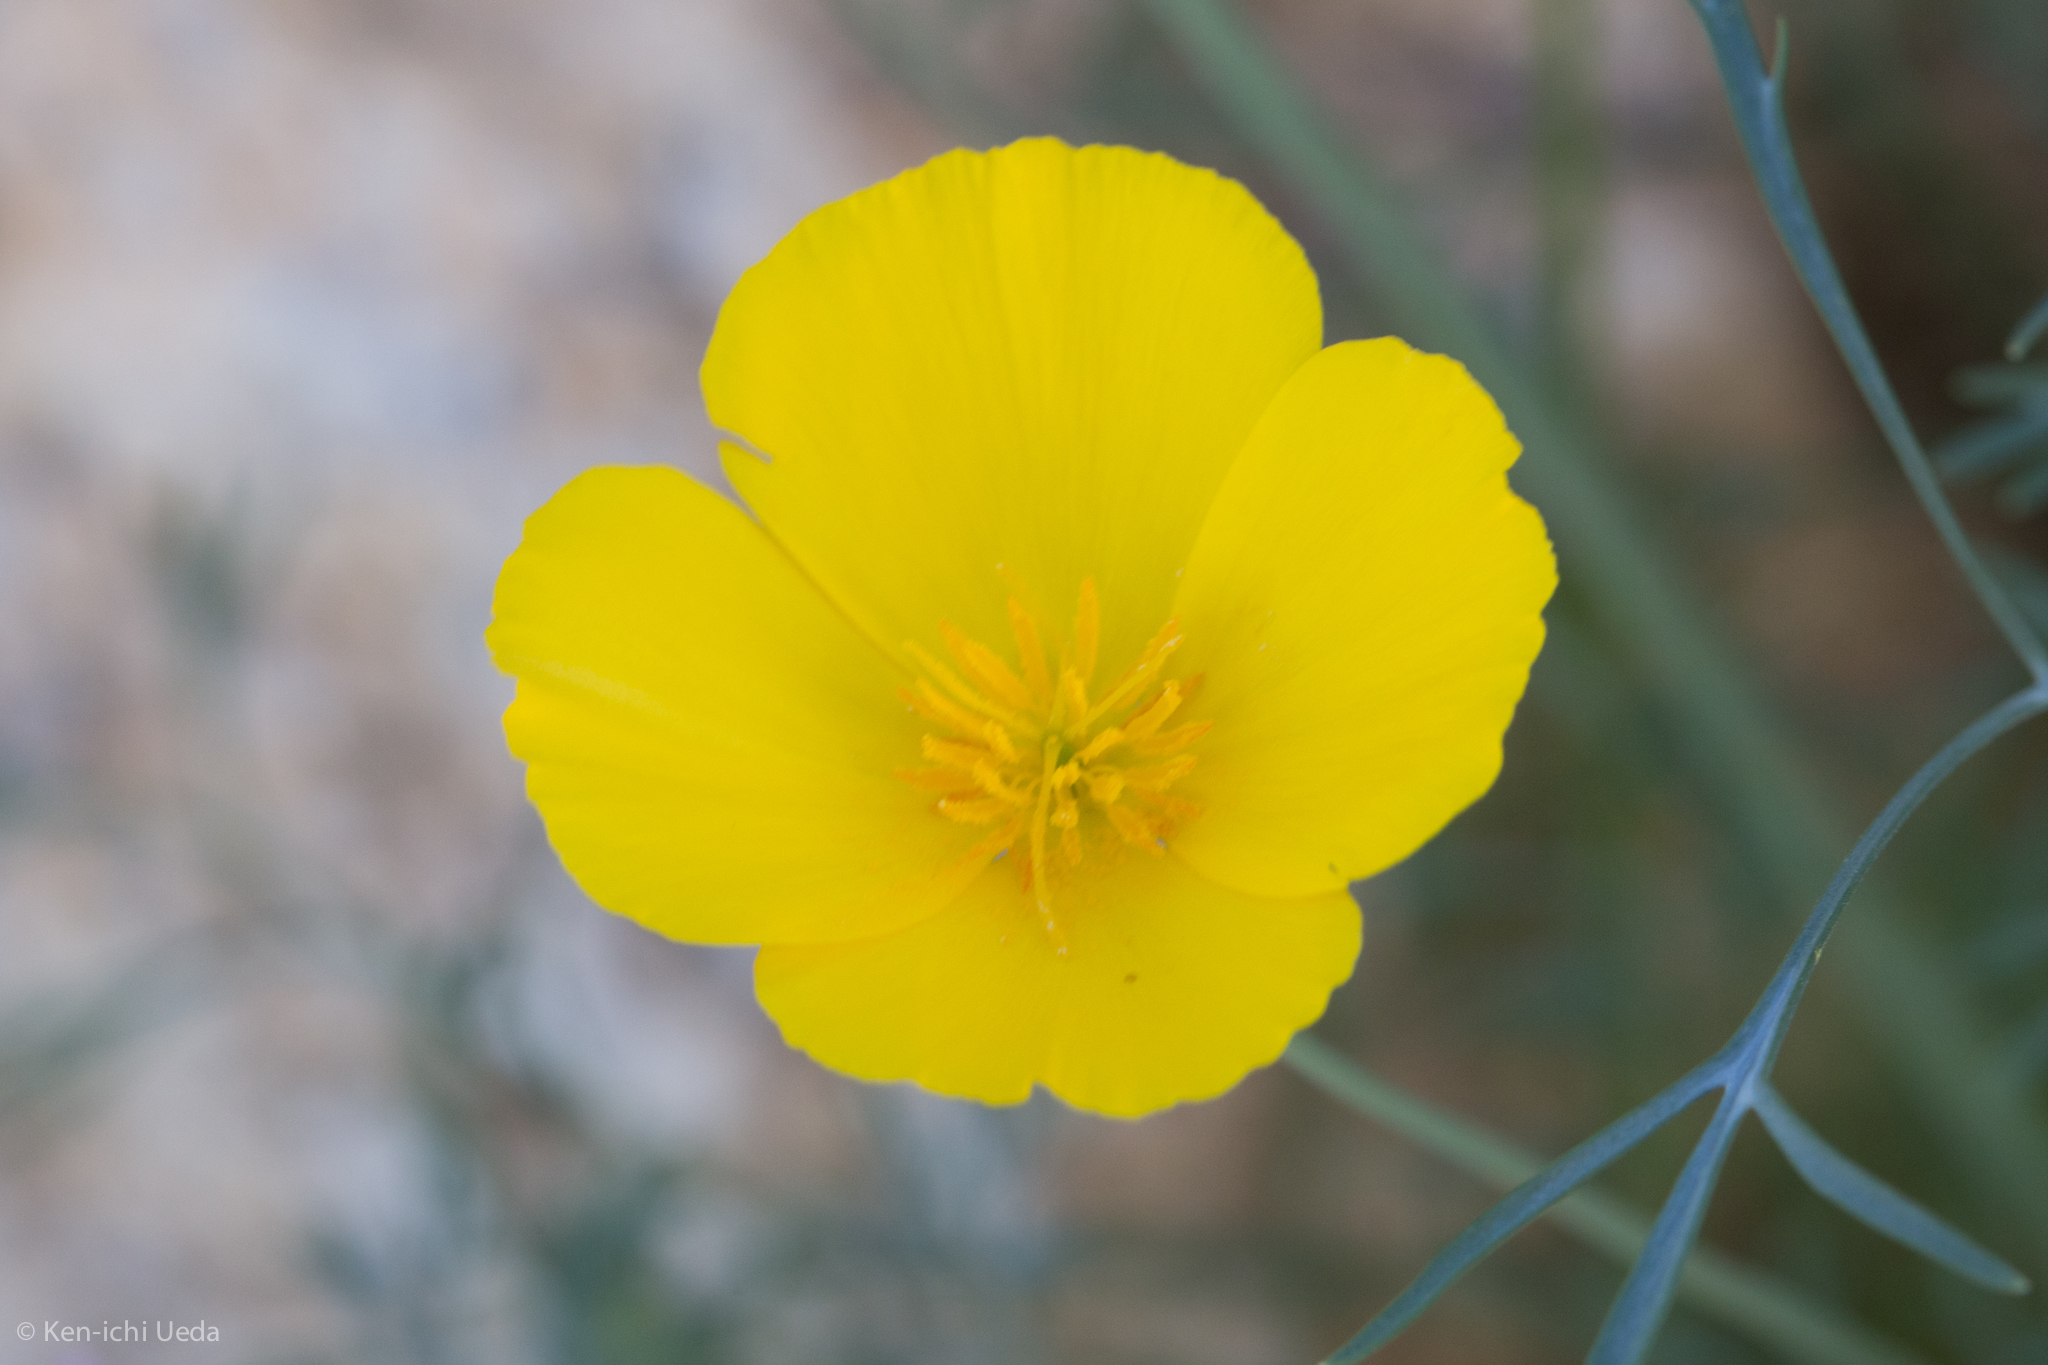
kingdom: Plantae
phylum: Tracheophyta
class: Magnoliopsida
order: Ranunculales
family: Papaveraceae
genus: Eschscholzia
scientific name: Eschscholzia parishii
